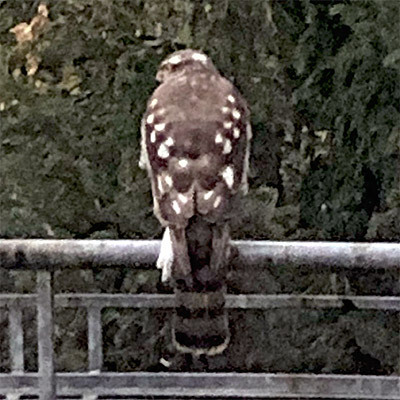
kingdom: Animalia
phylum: Chordata
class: Aves
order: Accipitriformes
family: Accipitridae
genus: Accipiter
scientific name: Accipiter nisus
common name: Eurasian sparrowhawk
